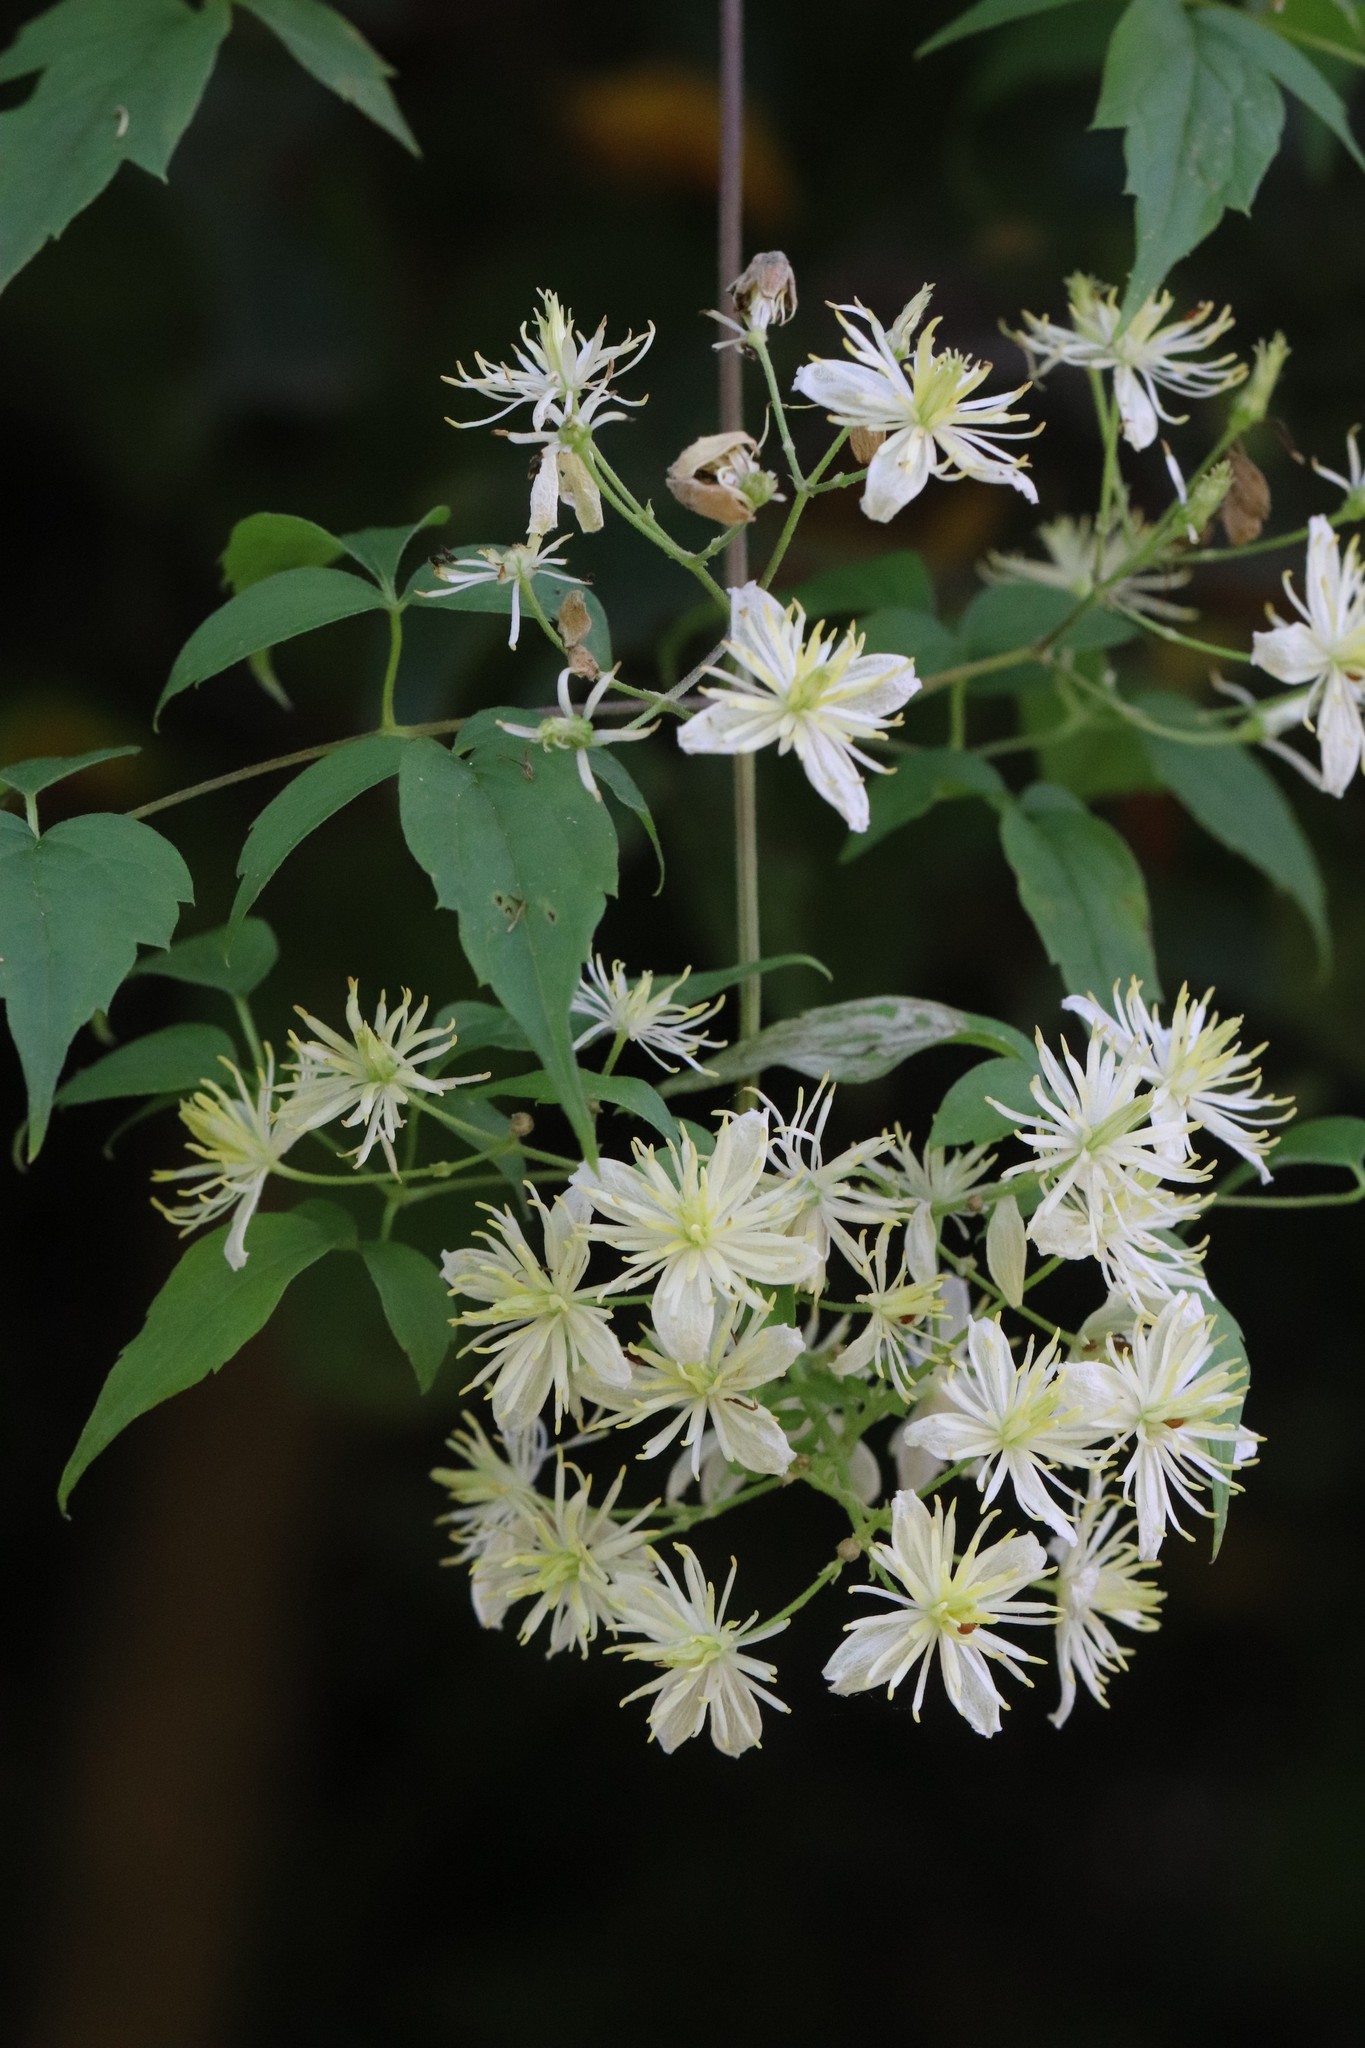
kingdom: Plantae
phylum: Tracheophyta
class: Magnoliopsida
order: Ranunculales
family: Ranunculaceae
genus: Clematis
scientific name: Clematis brevicaudata
